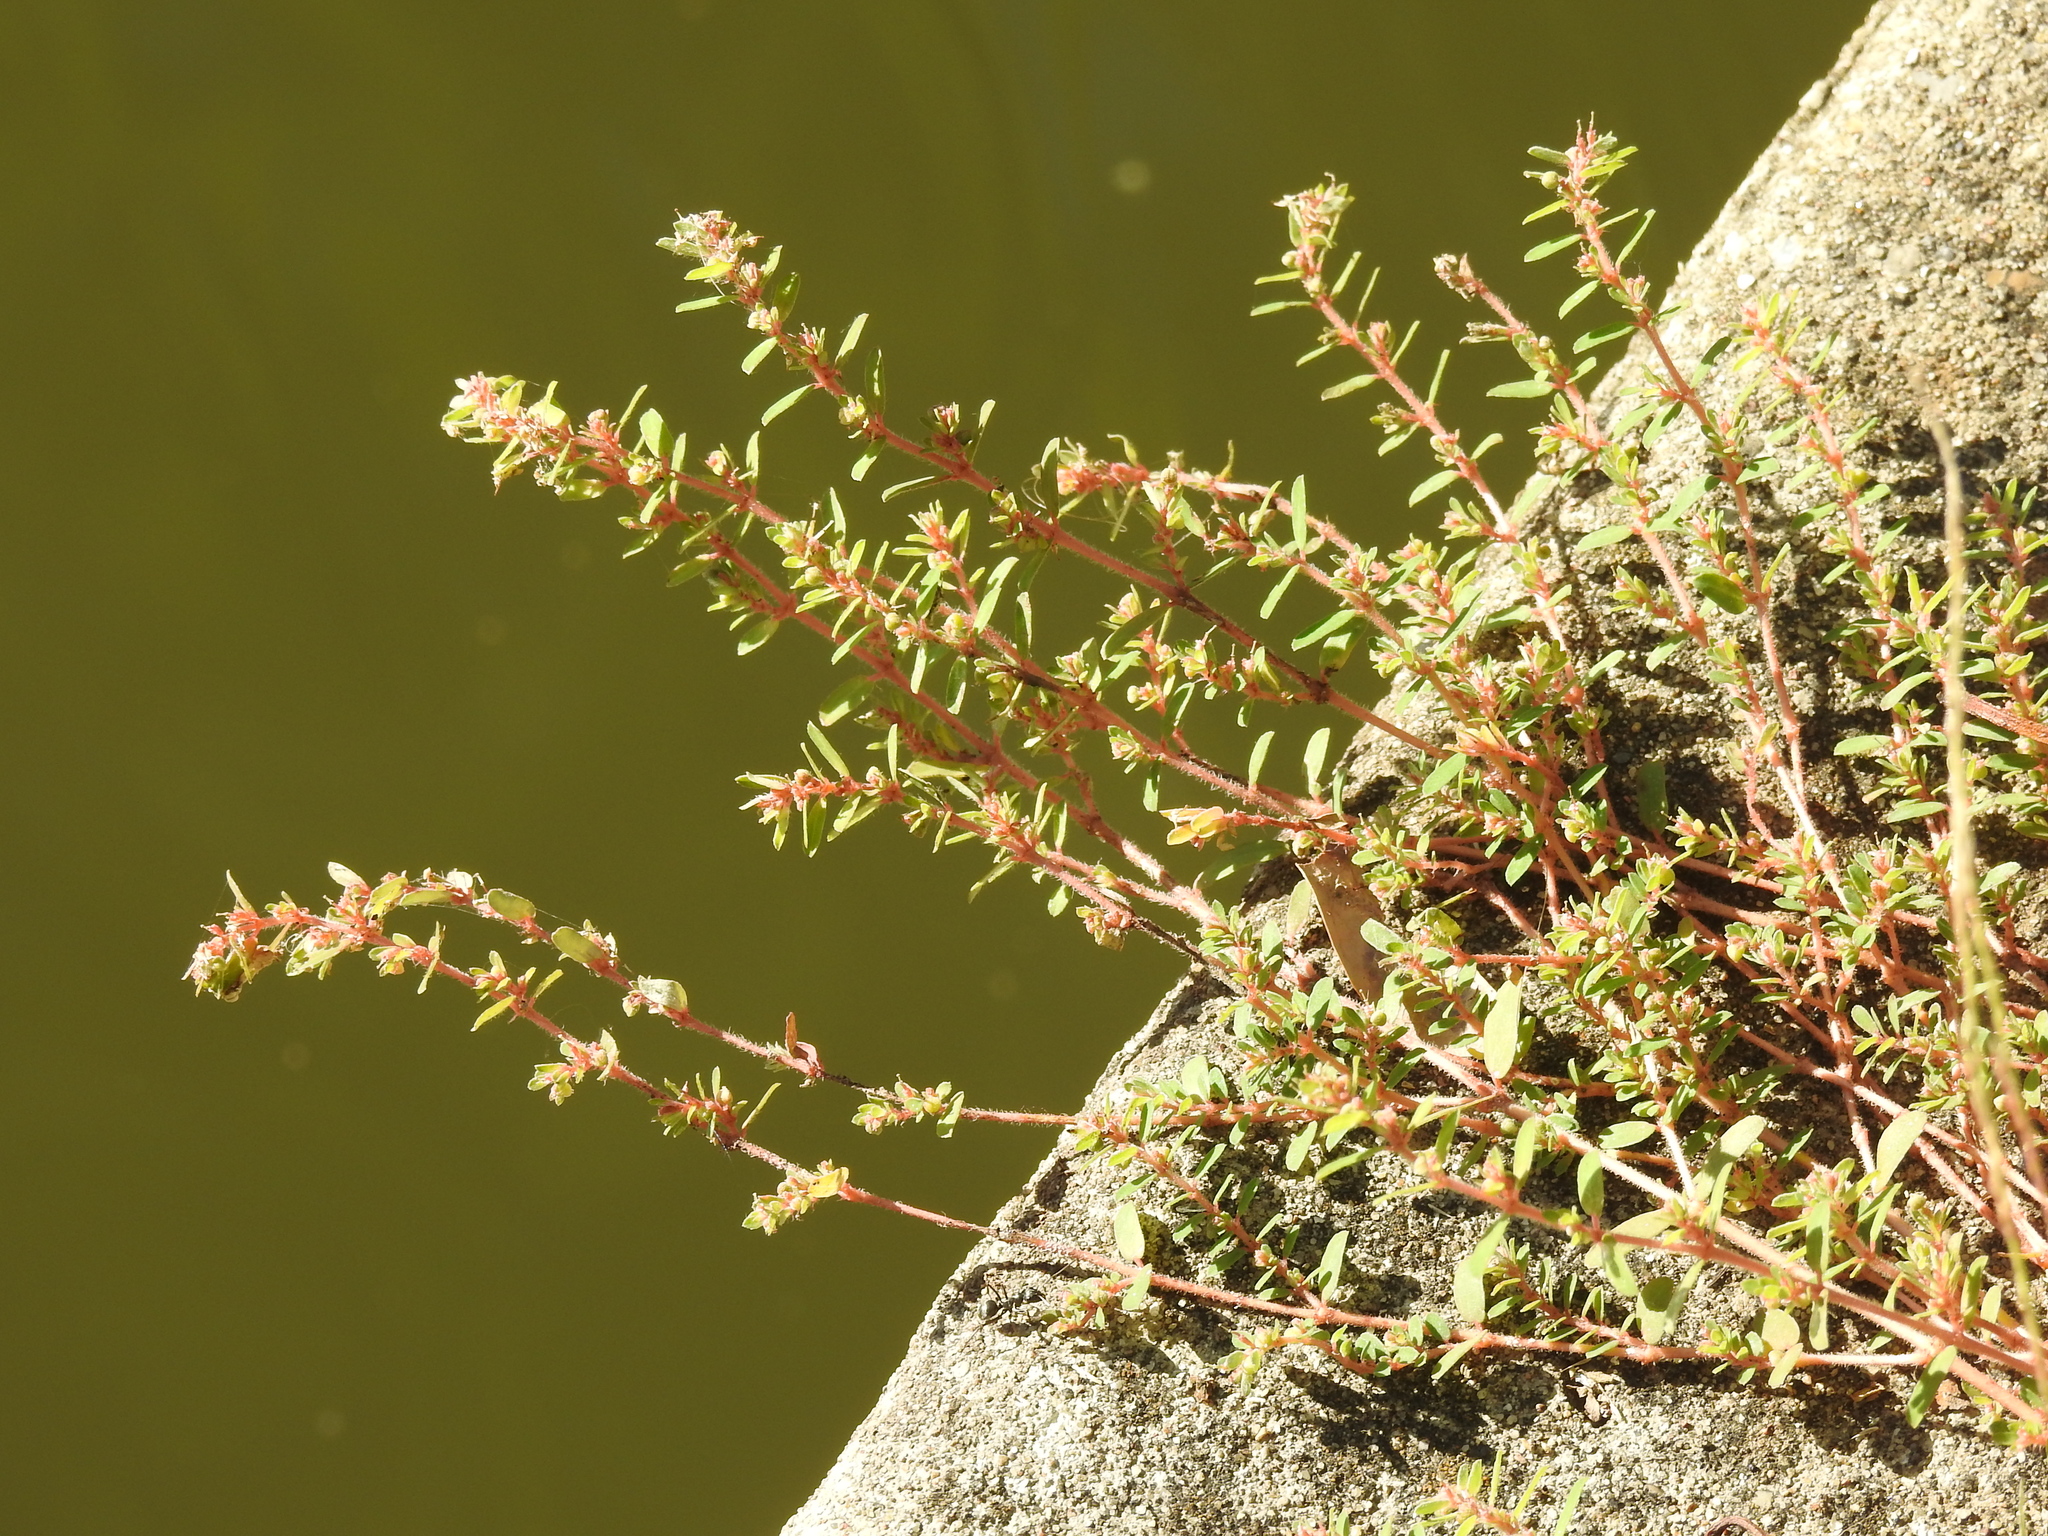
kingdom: Plantae
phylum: Tracheophyta
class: Magnoliopsida
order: Malpighiales
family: Euphorbiaceae
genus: Euphorbia
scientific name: Euphorbia maculata
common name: Spotted spurge
